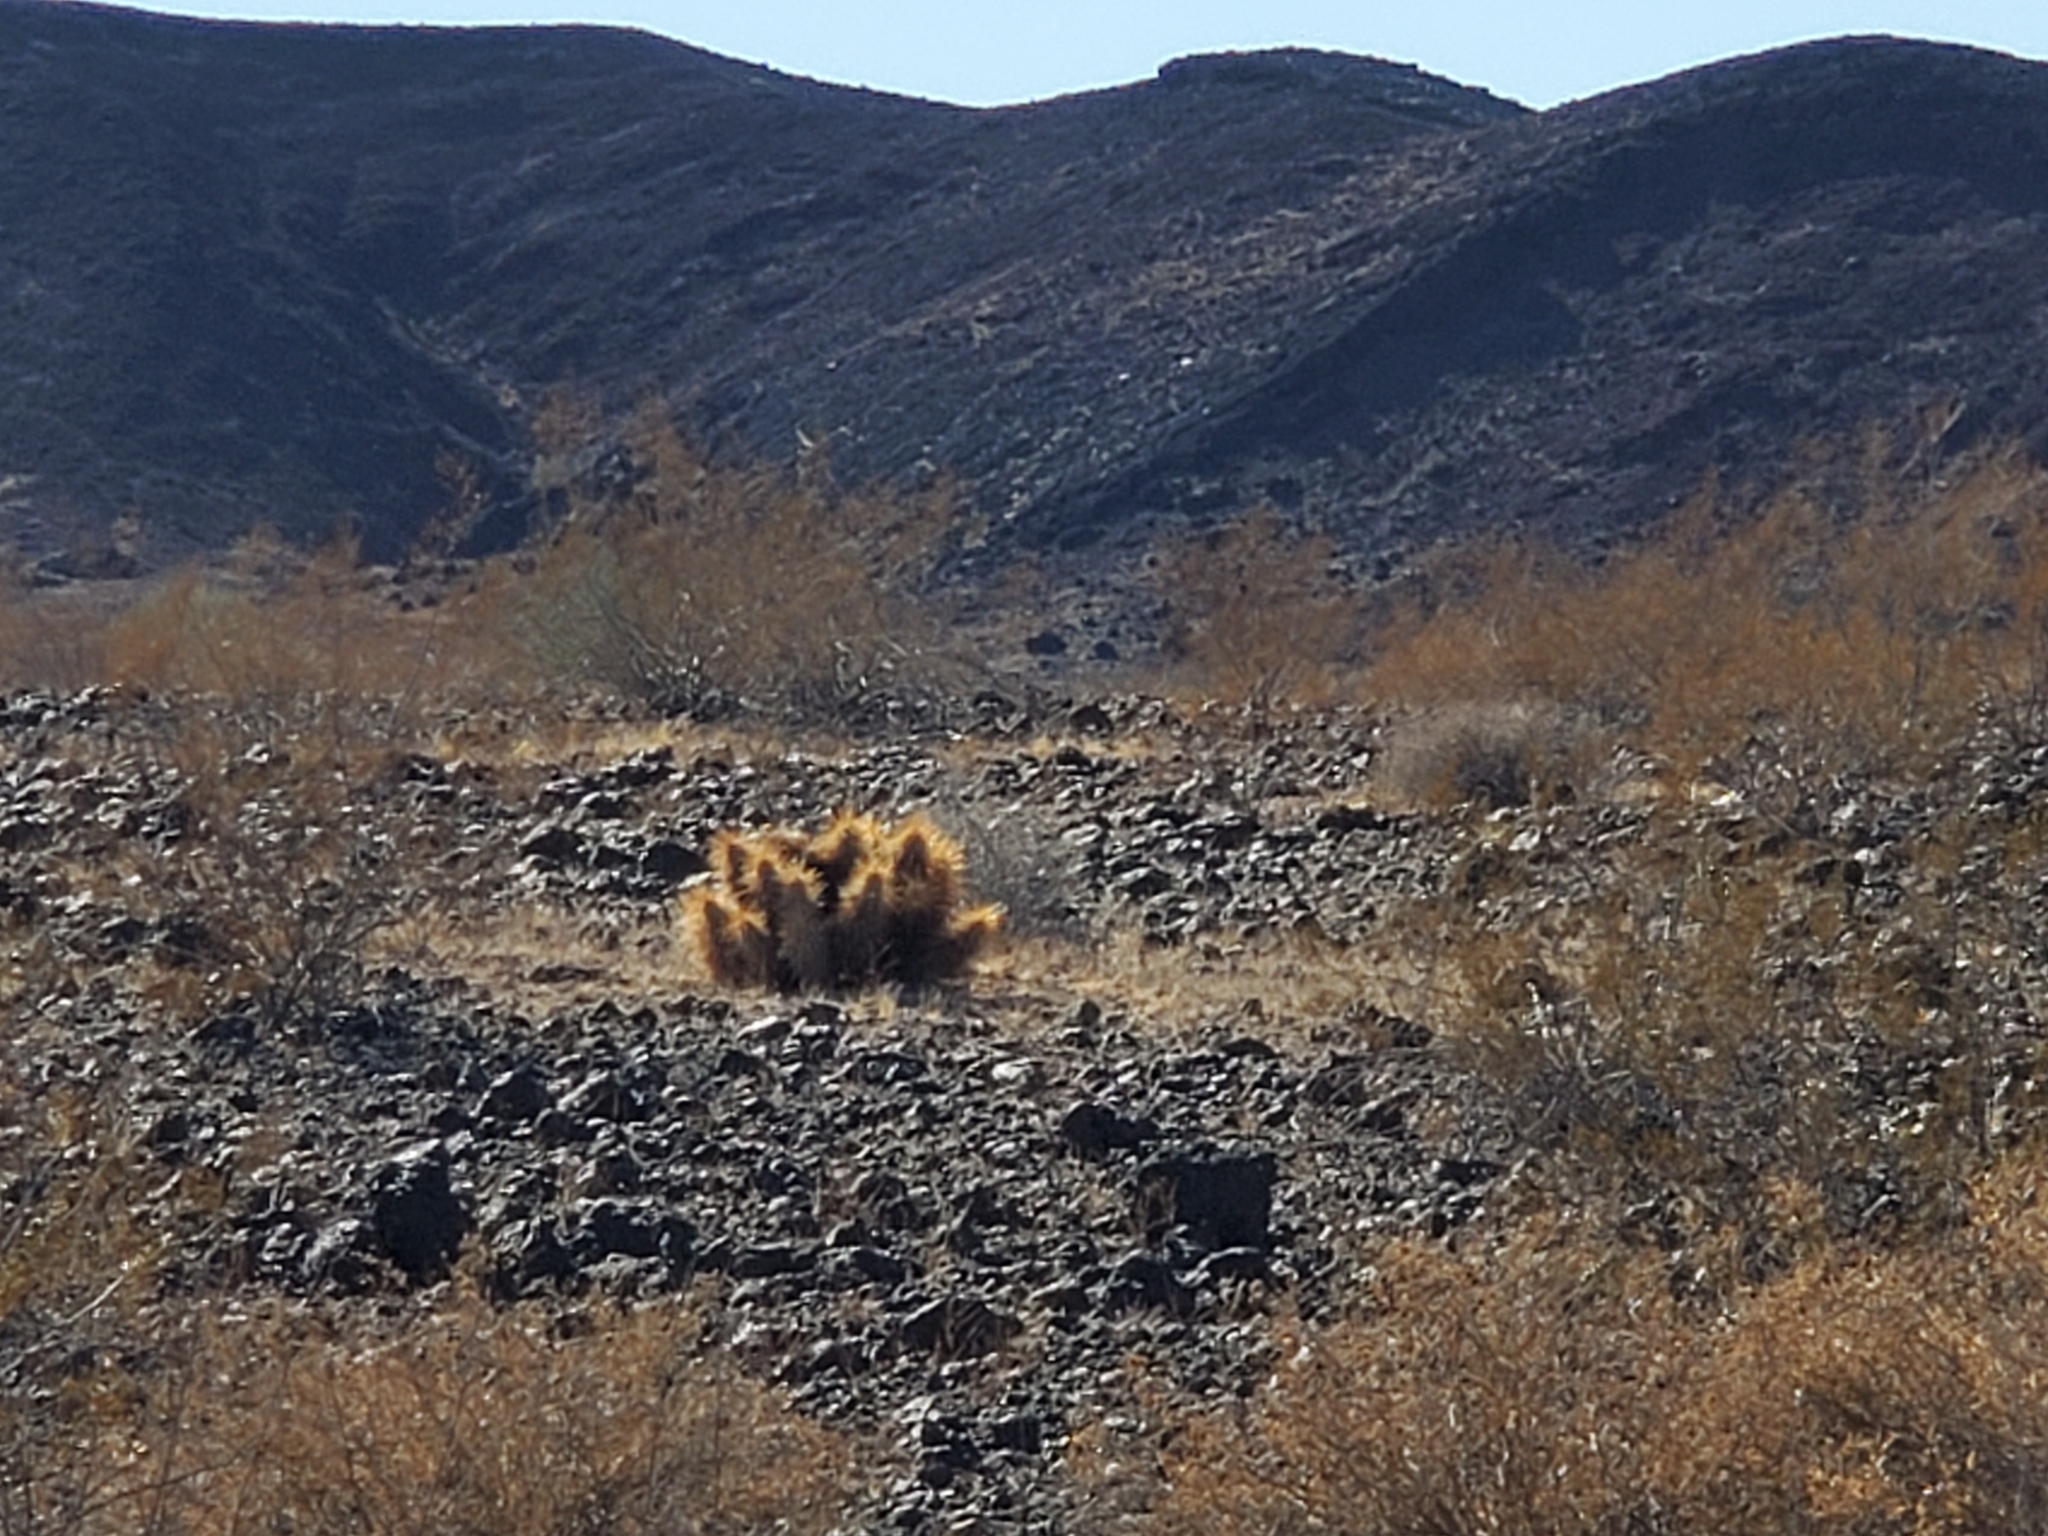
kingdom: Plantae
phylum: Tracheophyta
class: Magnoliopsida
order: Caryophyllales
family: Cactaceae
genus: Grusonia
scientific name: Grusonia kunzei
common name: Wright's club cholla
